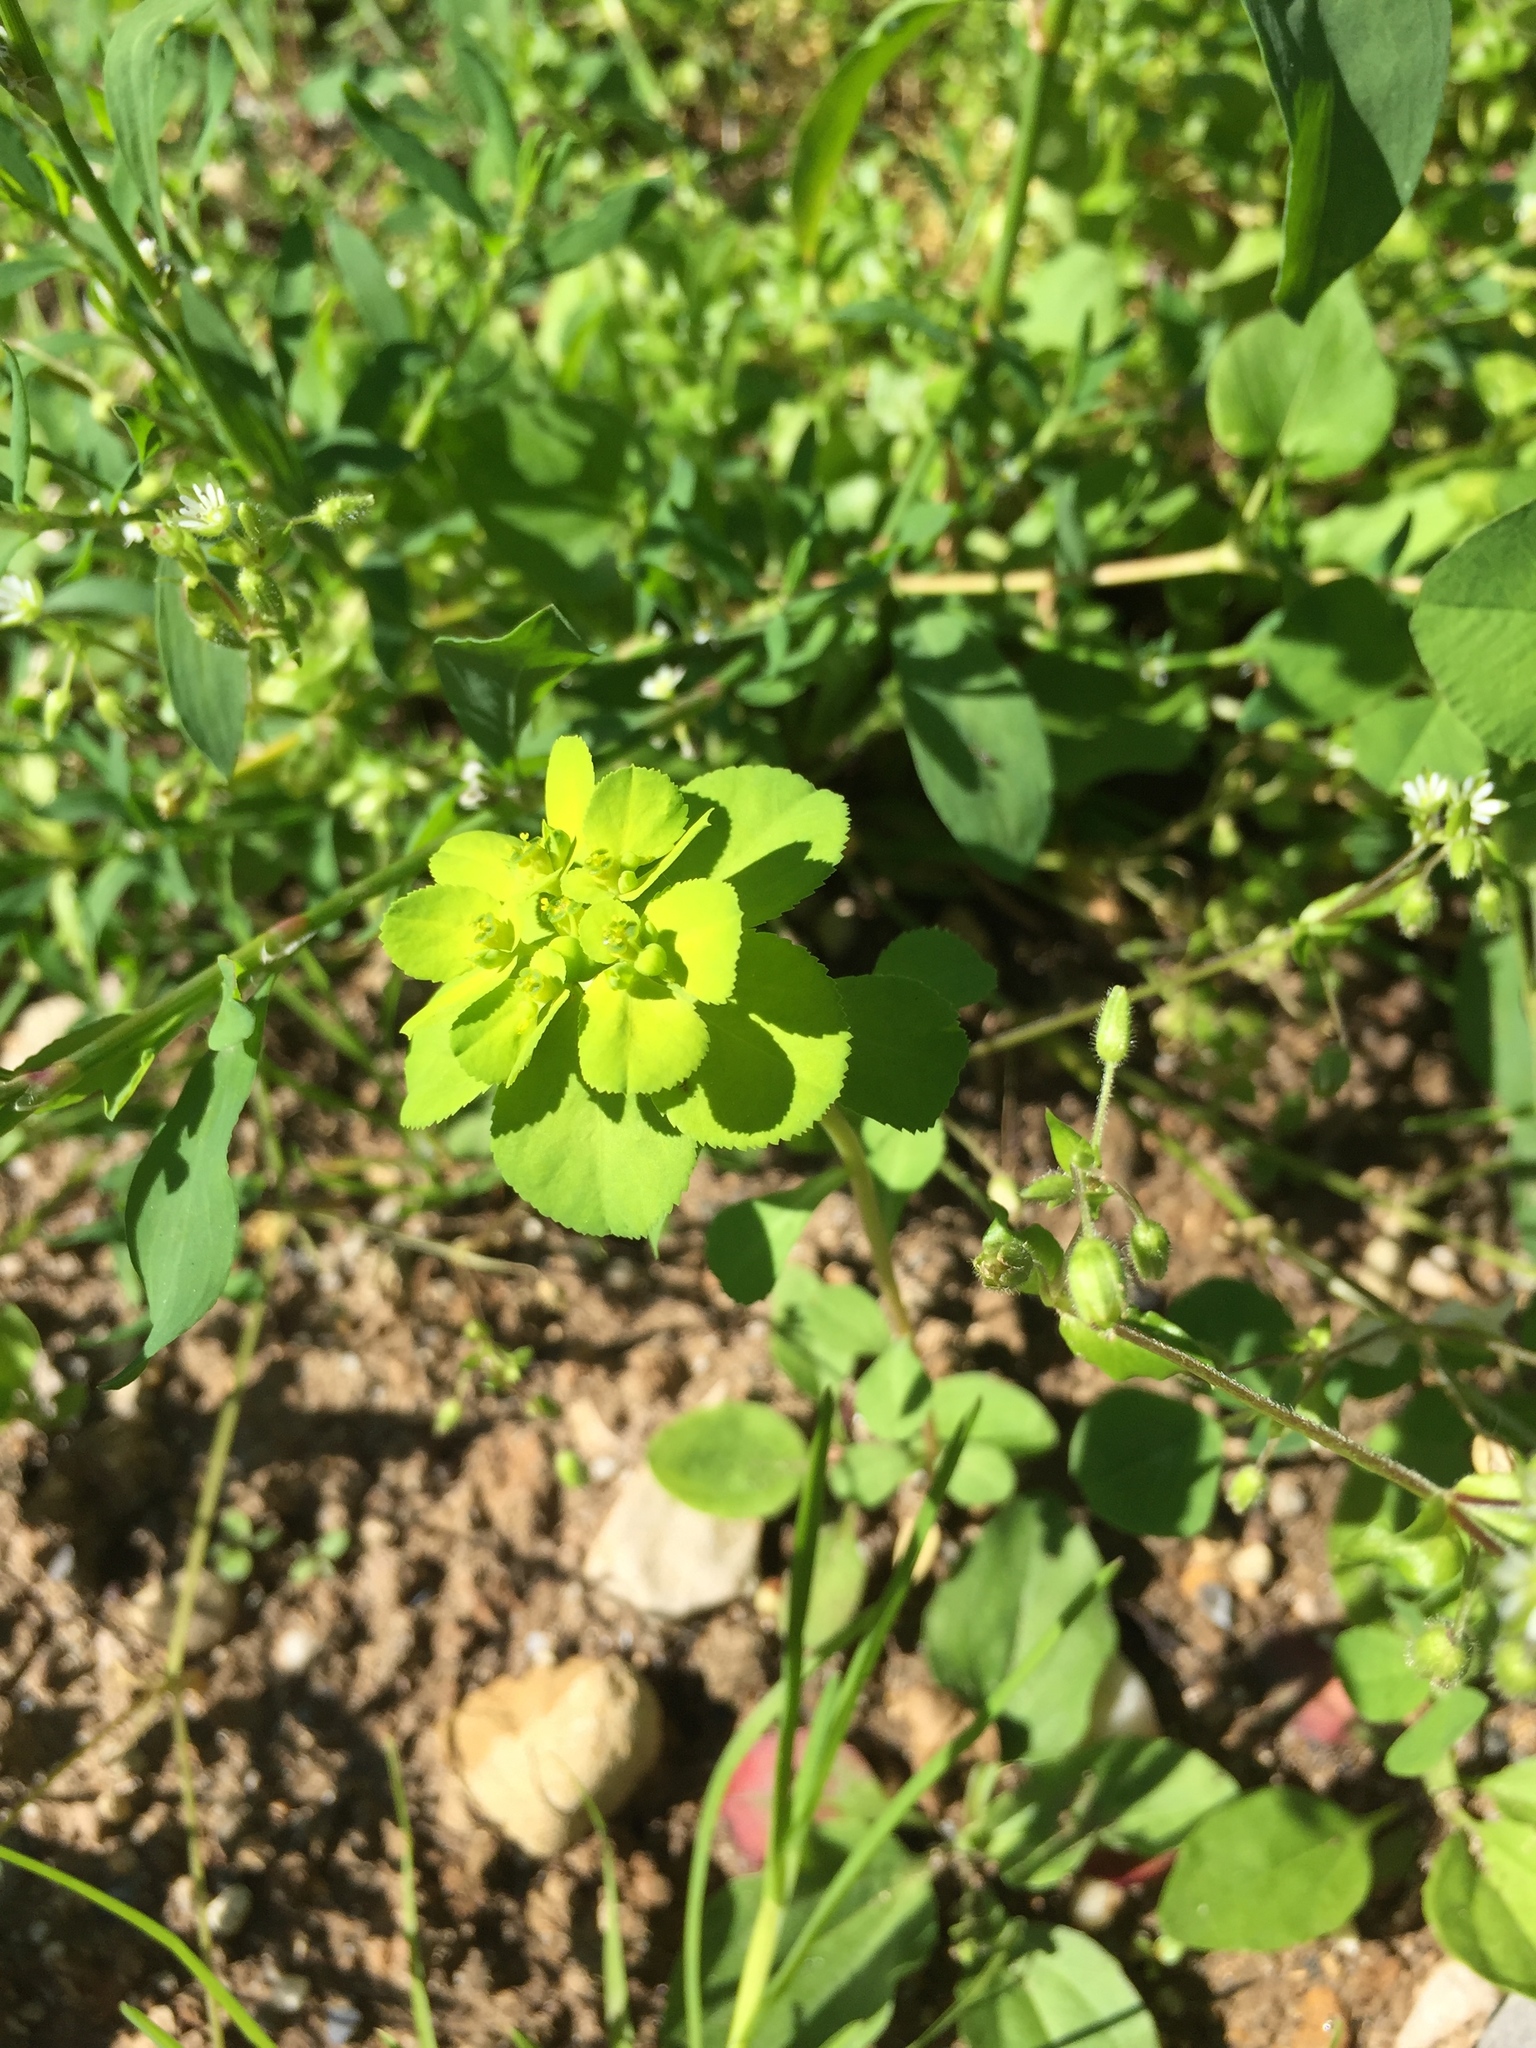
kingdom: Plantae
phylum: Tracheophyta
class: Magnoliopsida
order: Malpighiales
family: Euphorbiaceae
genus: Euphorbia
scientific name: Euphorbia helioscopia
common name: Sun spurge
